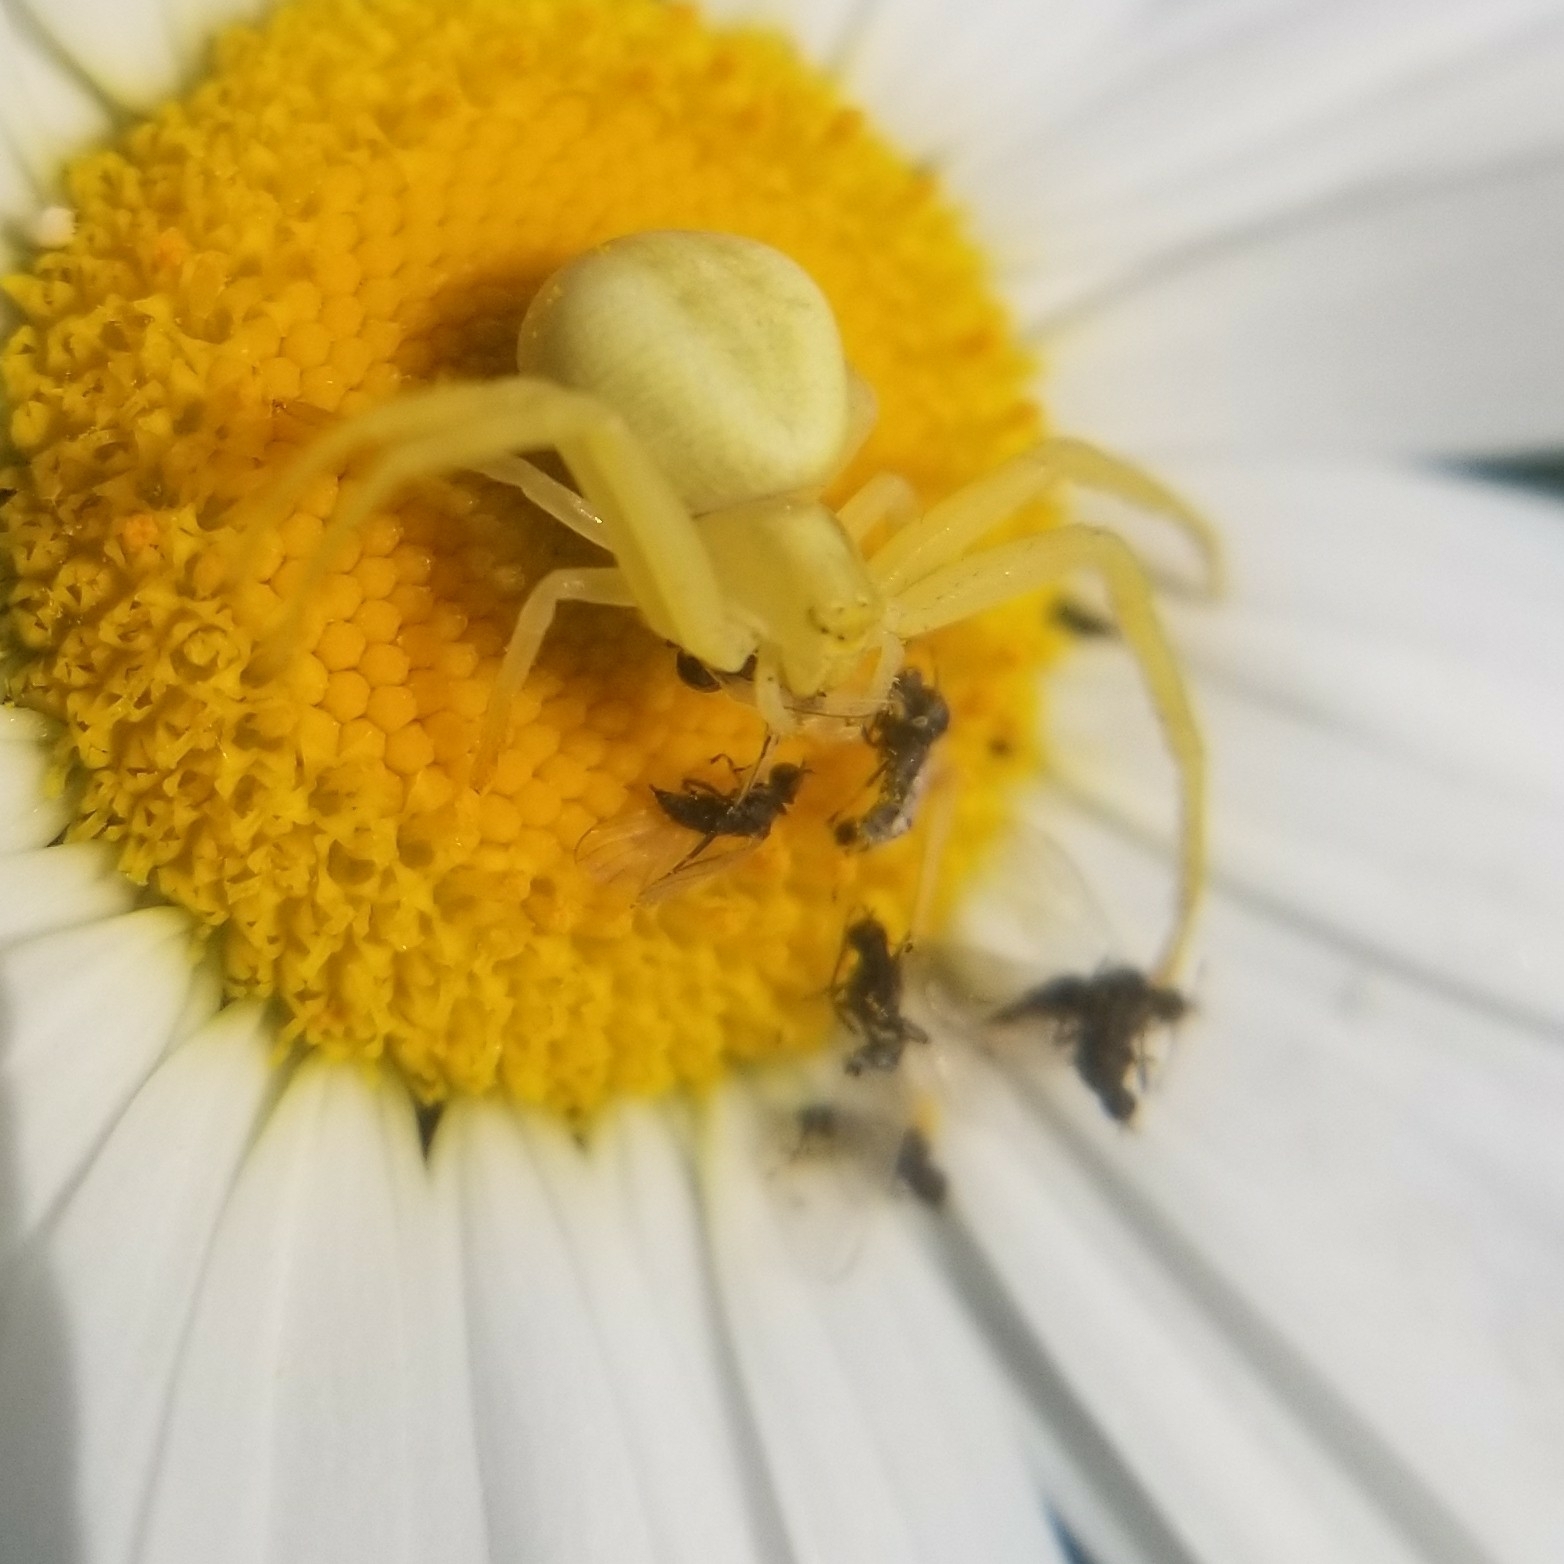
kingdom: Animalia
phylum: Arthropoda
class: Arachnida
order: Araneae
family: Thomisidae
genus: Misumena
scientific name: Misumena vatia
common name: Goldenrod crab spider
